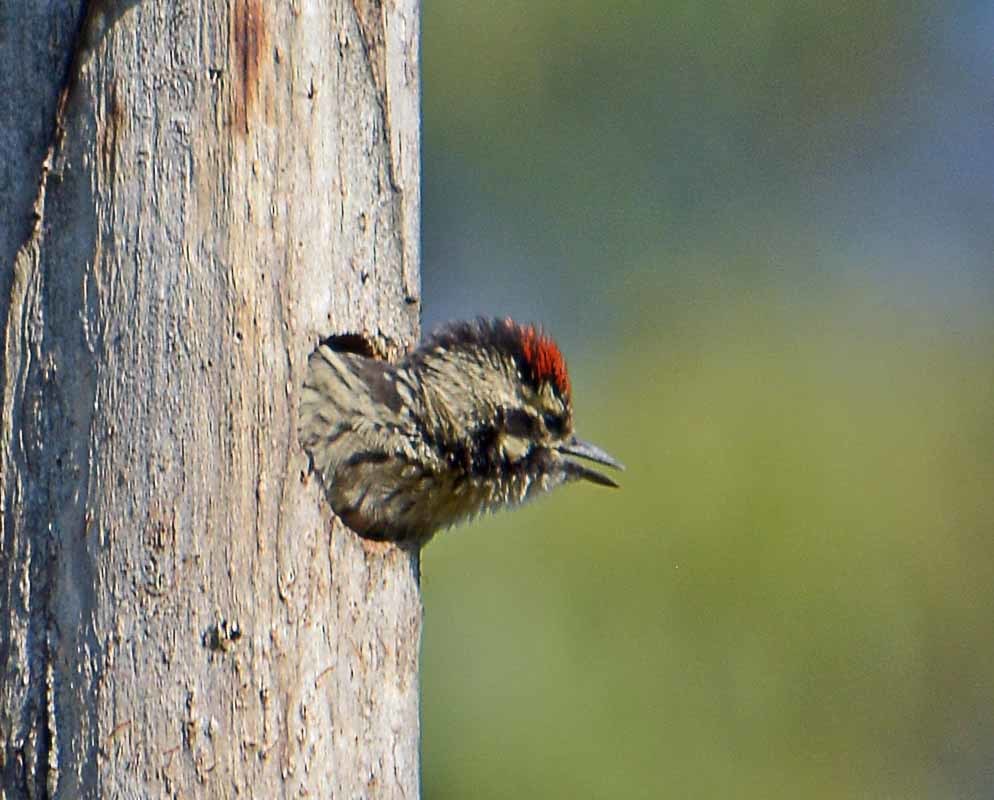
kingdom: Animalia
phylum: Chordata
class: Aves
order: Piciformes
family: Picidae
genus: Dryobates
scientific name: Dryobates scalaris
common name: Ladder-backed woodpecker
